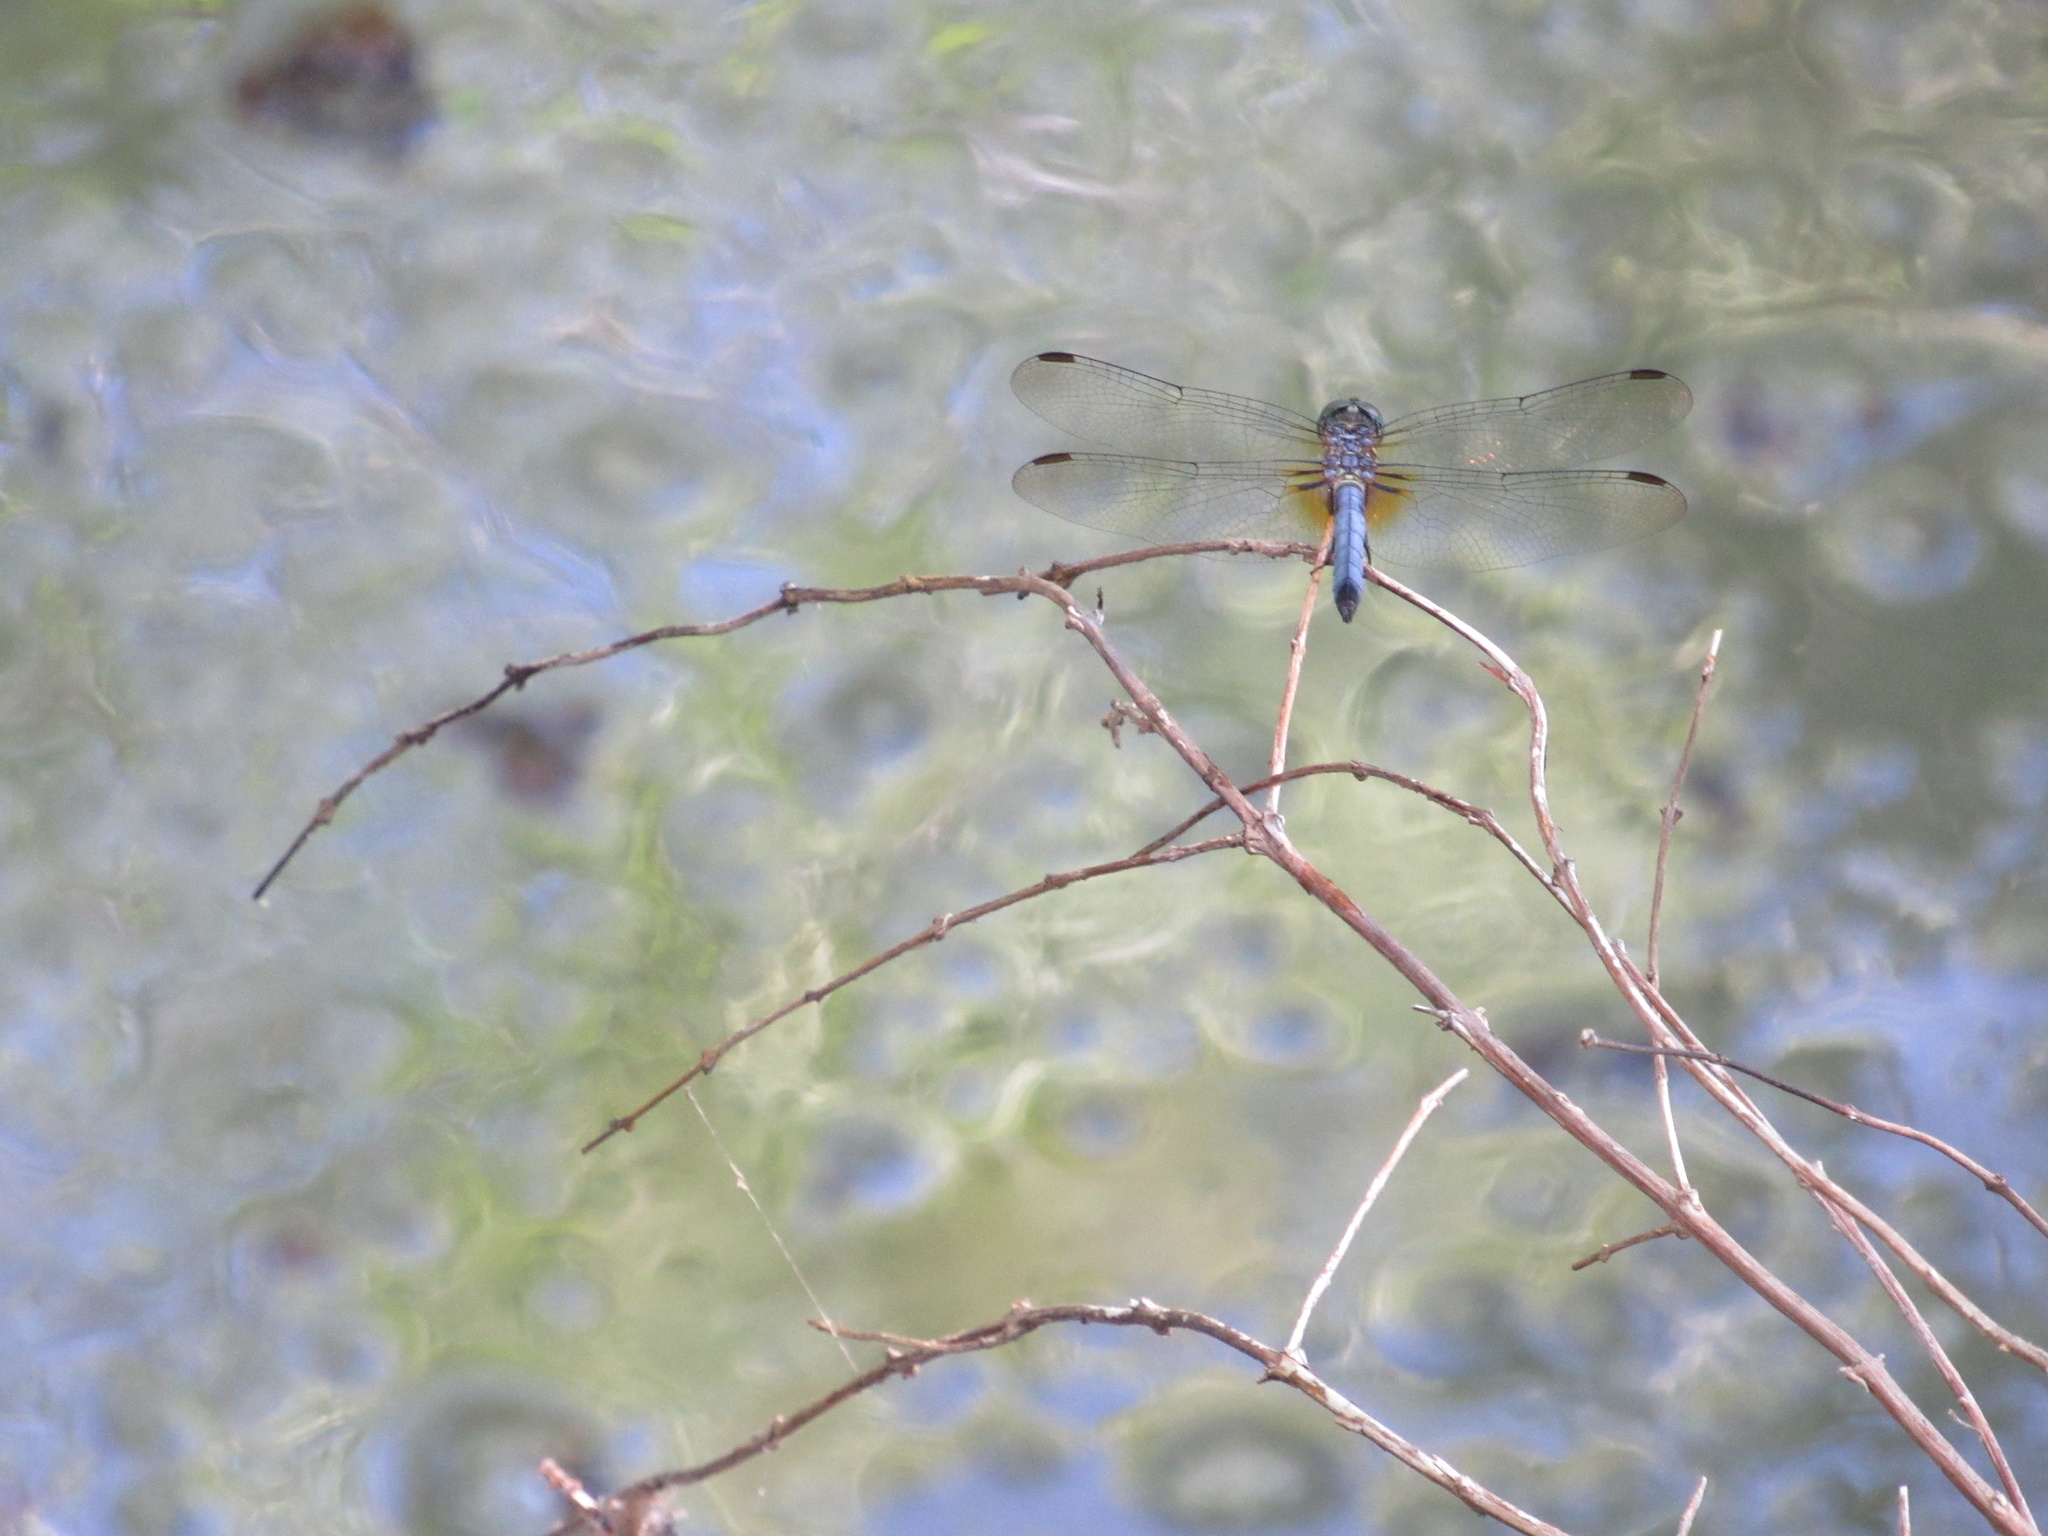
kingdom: Animalia
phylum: Arthropoda
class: Insecta
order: Odonata
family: Libellulidae
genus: Pachydiplax
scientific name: Pachydiplax longipennis
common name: Blue dasher
